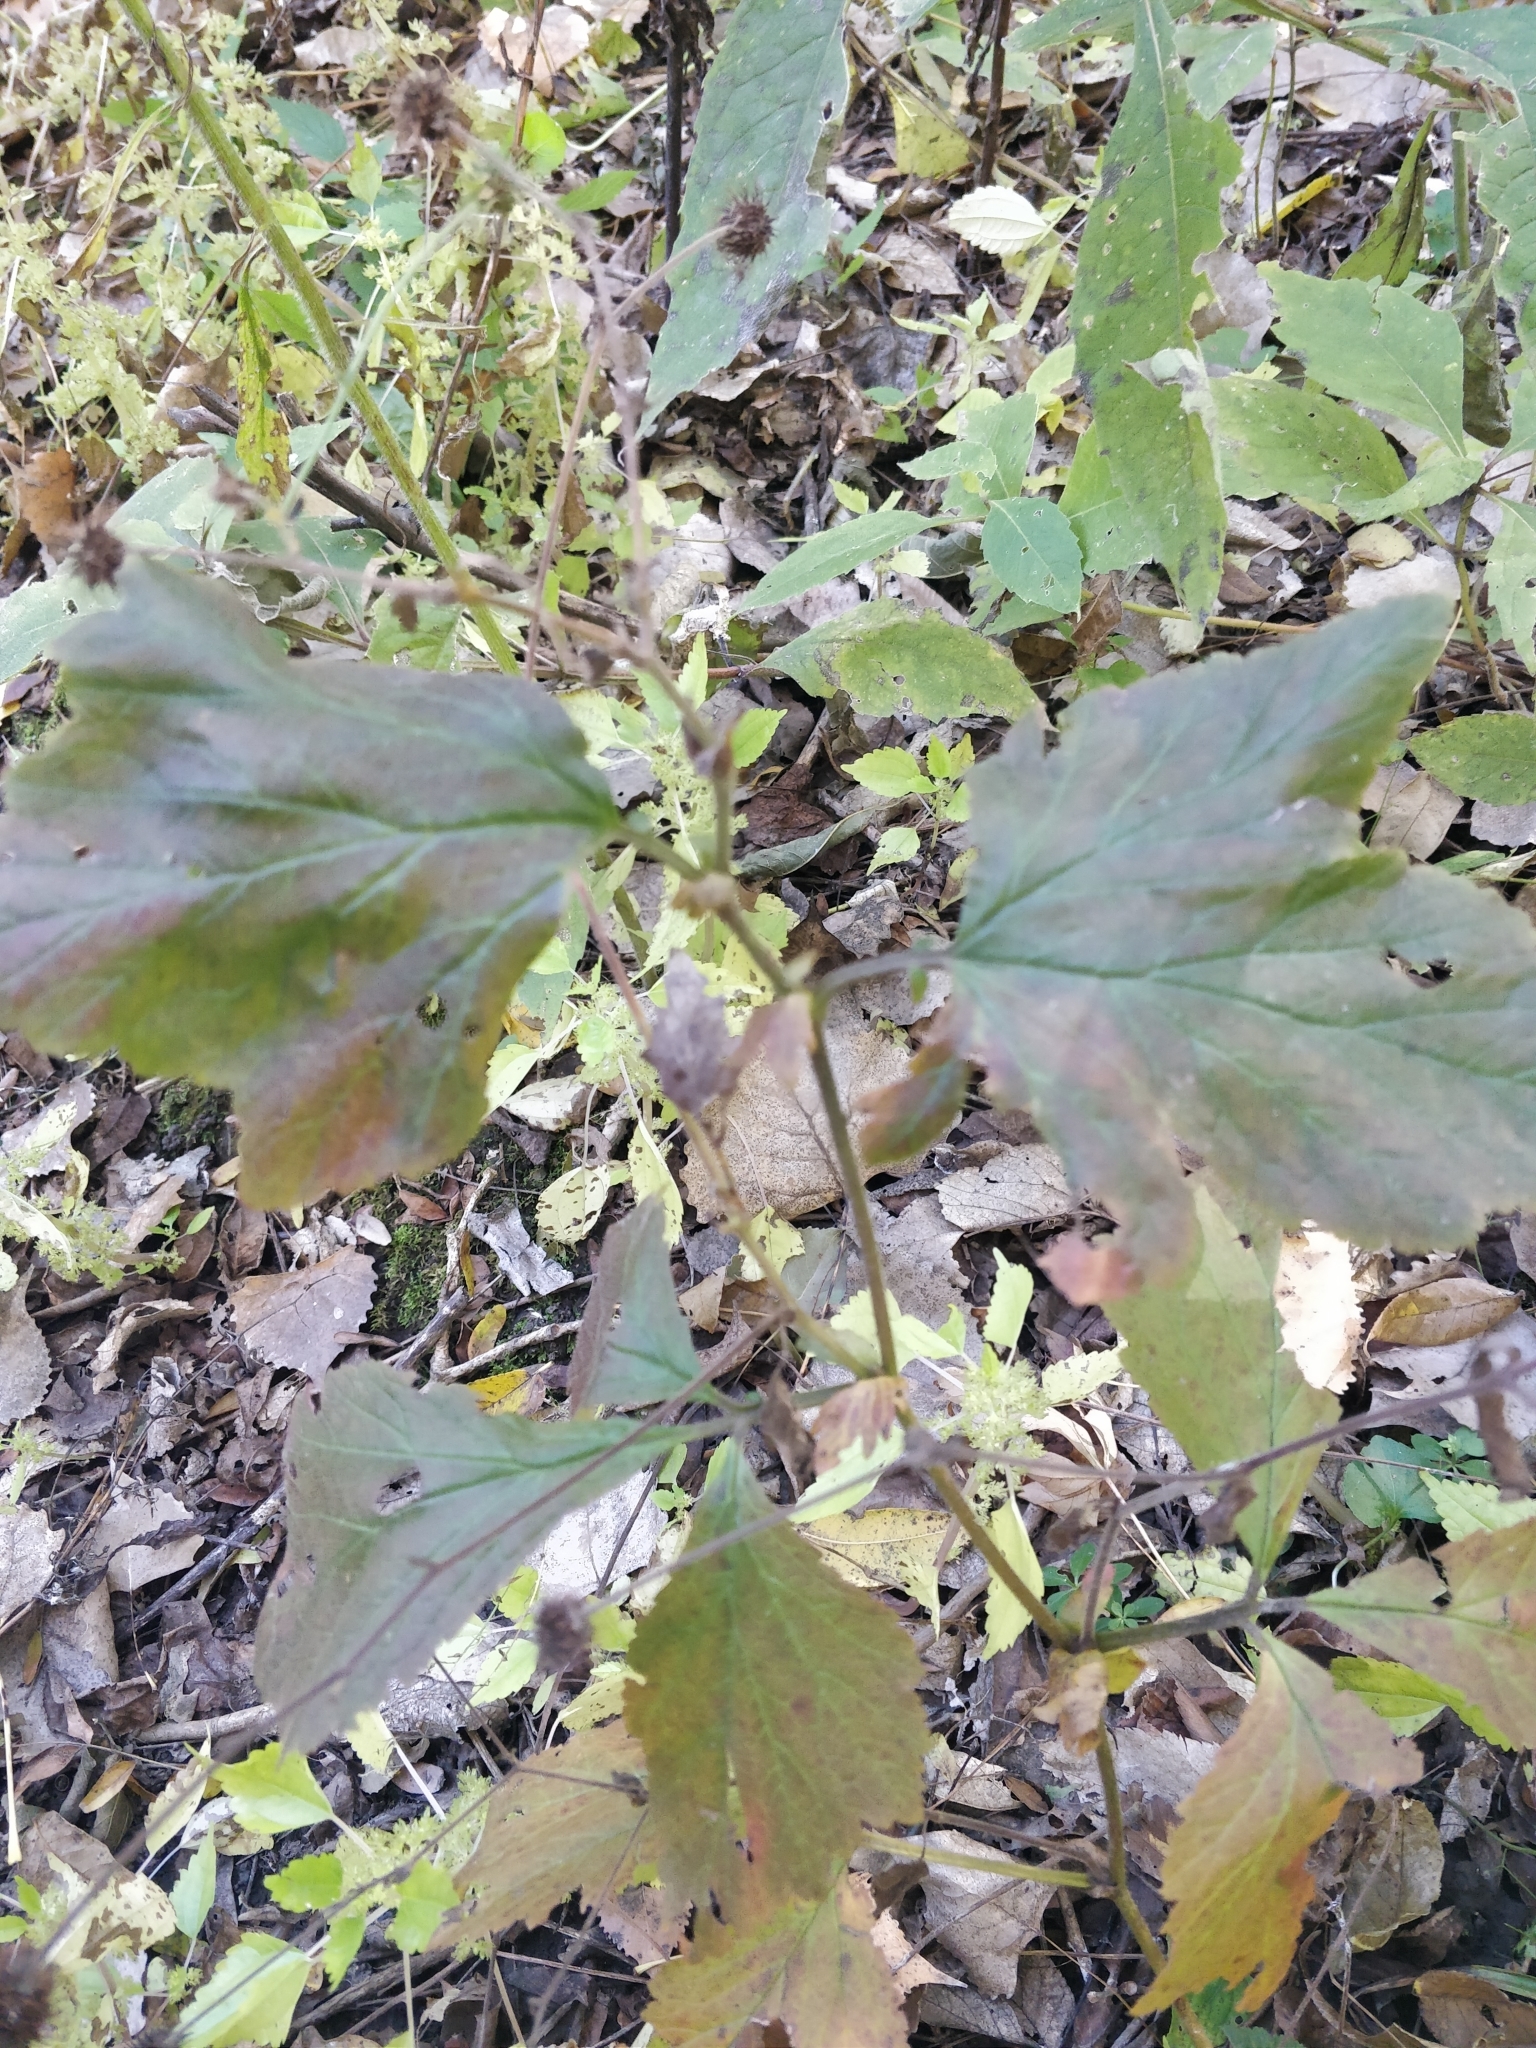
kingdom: Plantae
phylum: Tracheophyta
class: Magnoliopsida
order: Rosales
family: Rosaceae
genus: Geum
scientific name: Geum canadense
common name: White avens
